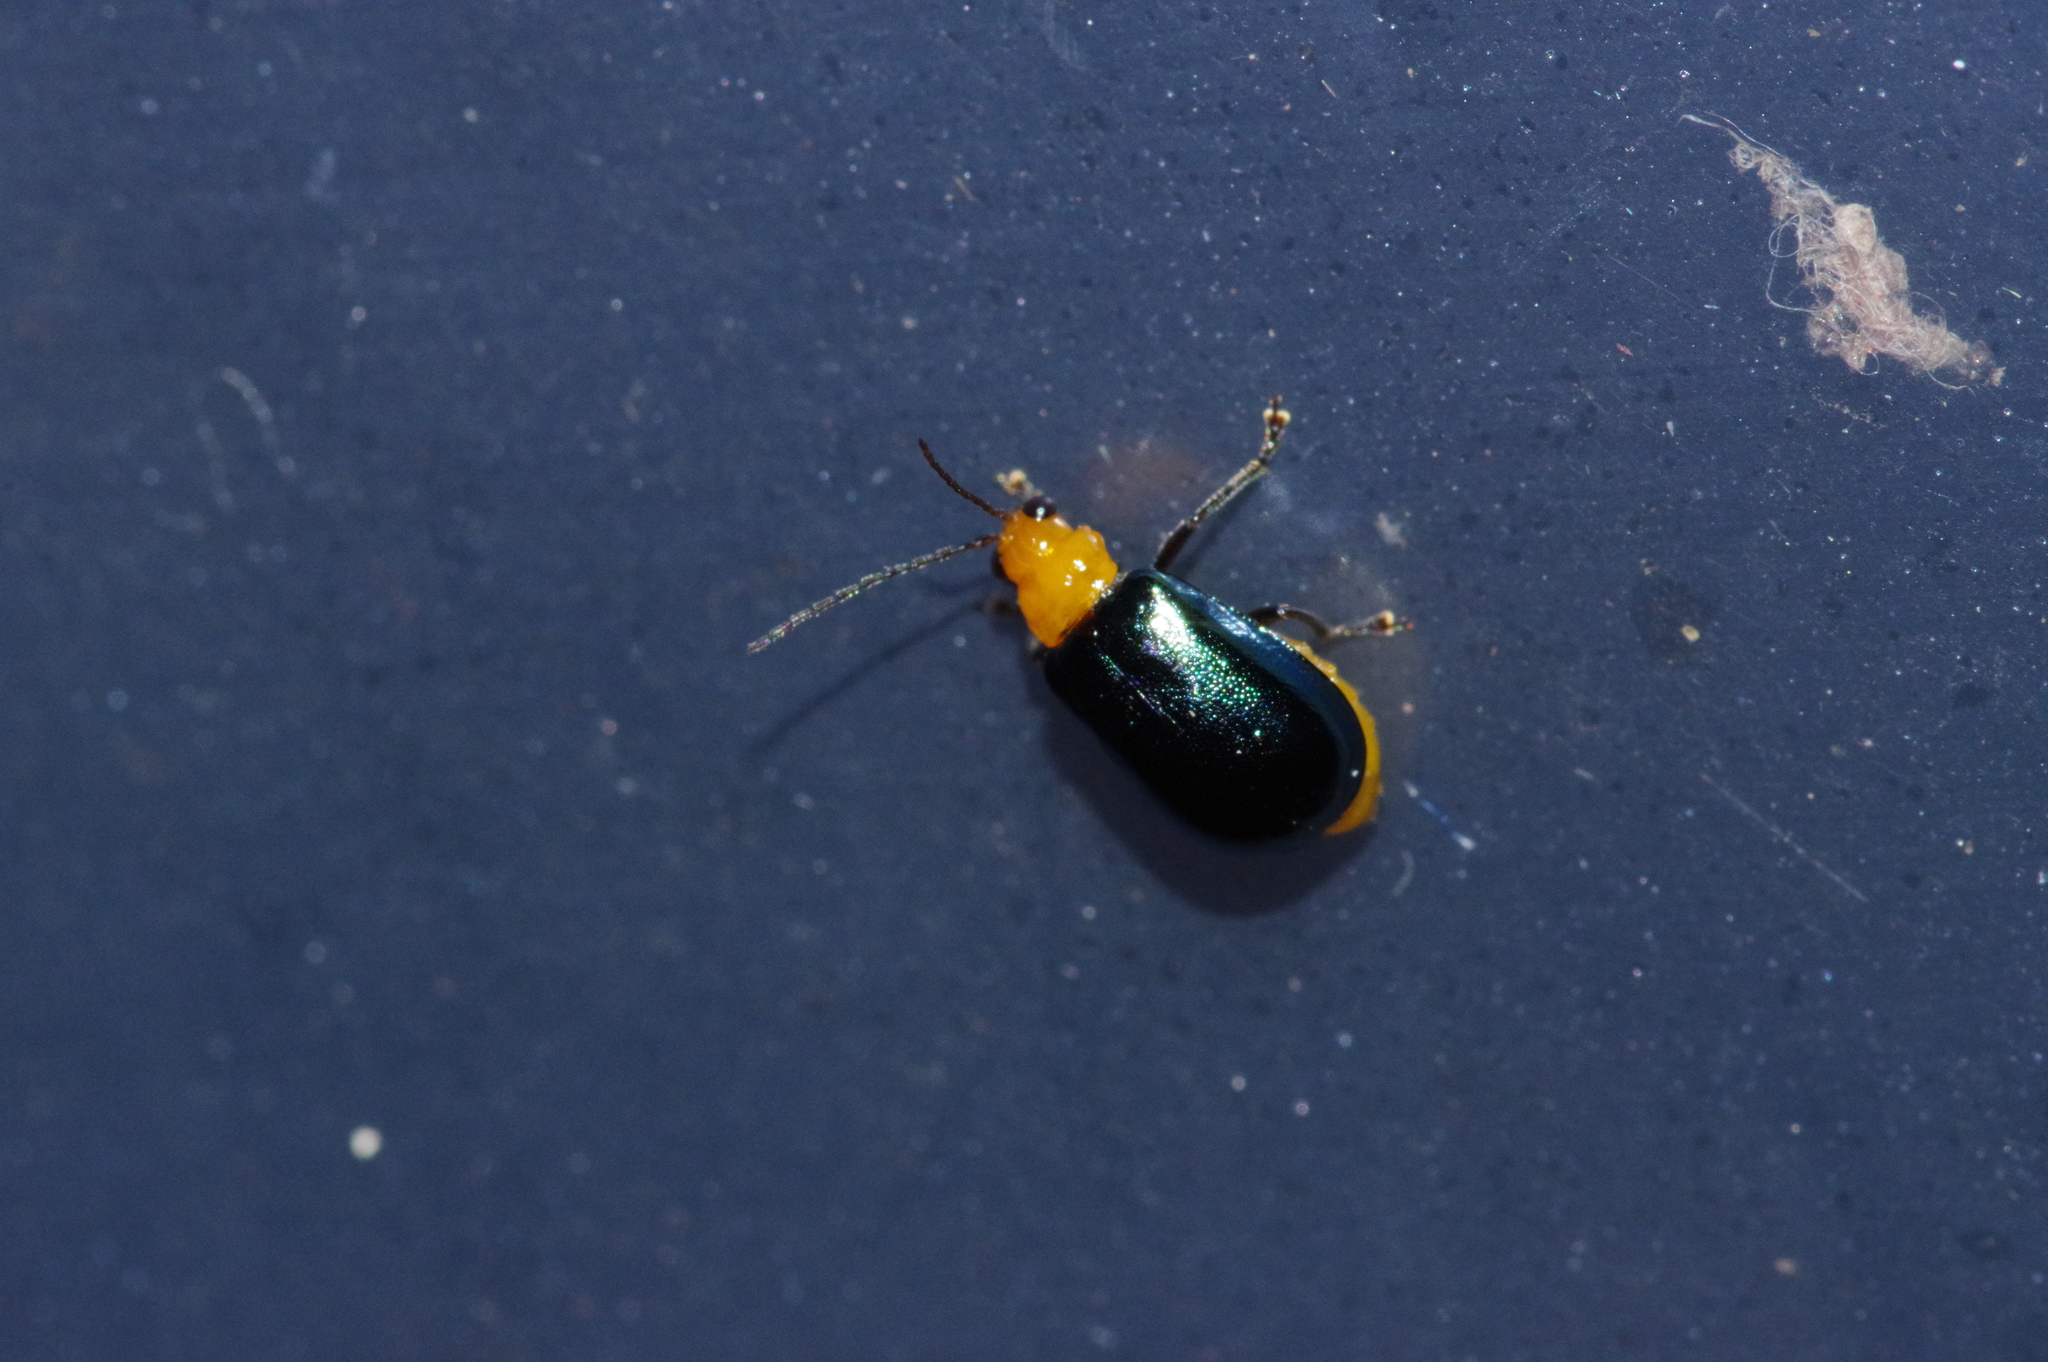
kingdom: Animalia
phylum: Arthropoda
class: Insecta
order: Coleoptera
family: Chrysomelidae
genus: Aulacophora
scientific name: Aulacophora nigripennis
